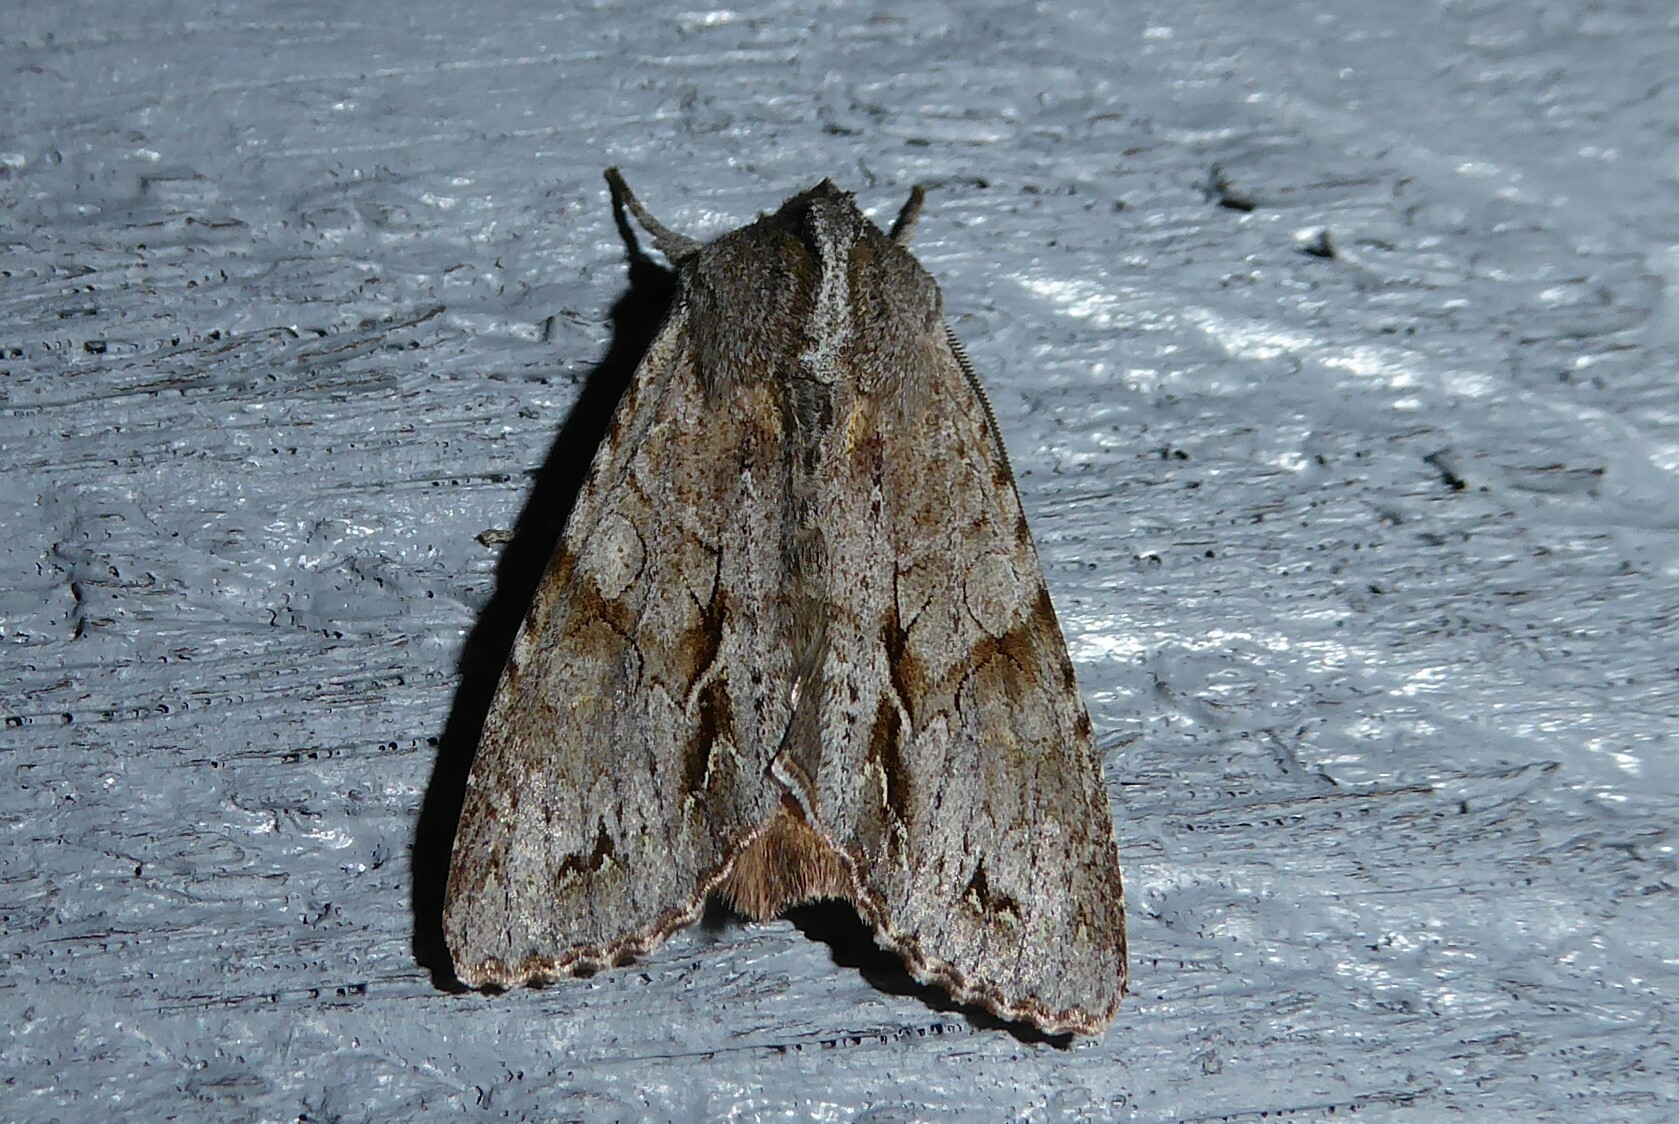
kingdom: Animalia
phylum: Arthropoda
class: Insecta
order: Lepidoptera
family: Noctuidae
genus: Ichneutica
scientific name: Ichneutica
